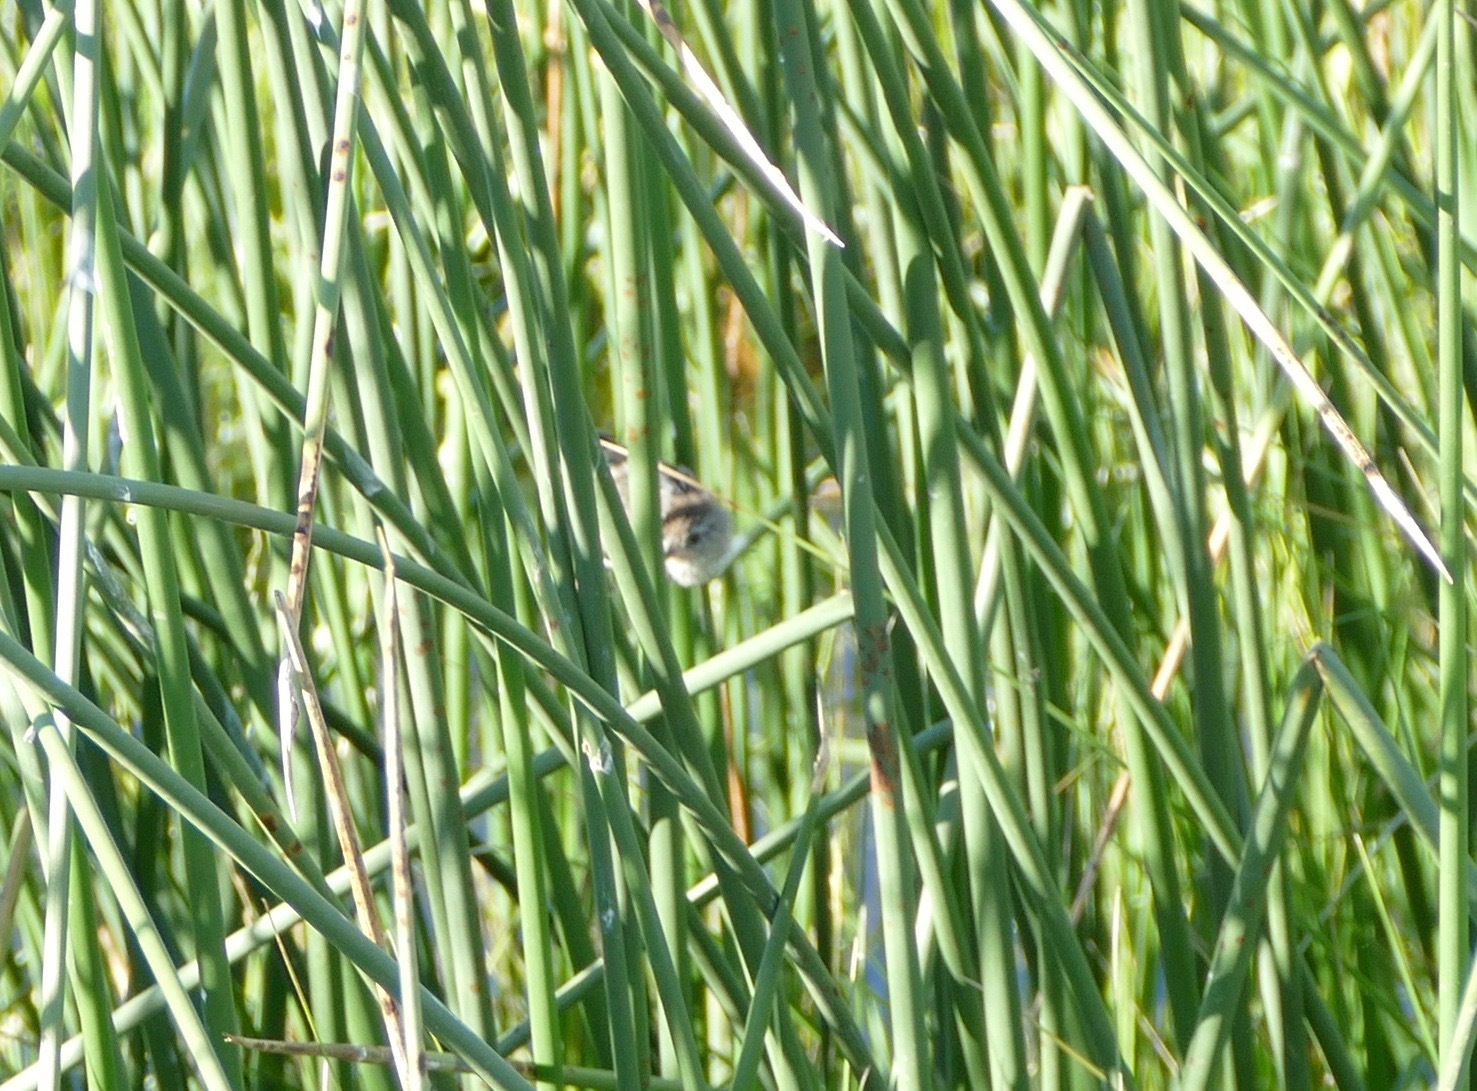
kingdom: Animalia
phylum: Chordata
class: Aves
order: Passeriformes
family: Troglodytidae
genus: Cistothorus
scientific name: Cistothorus palustris
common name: Marsh wren
